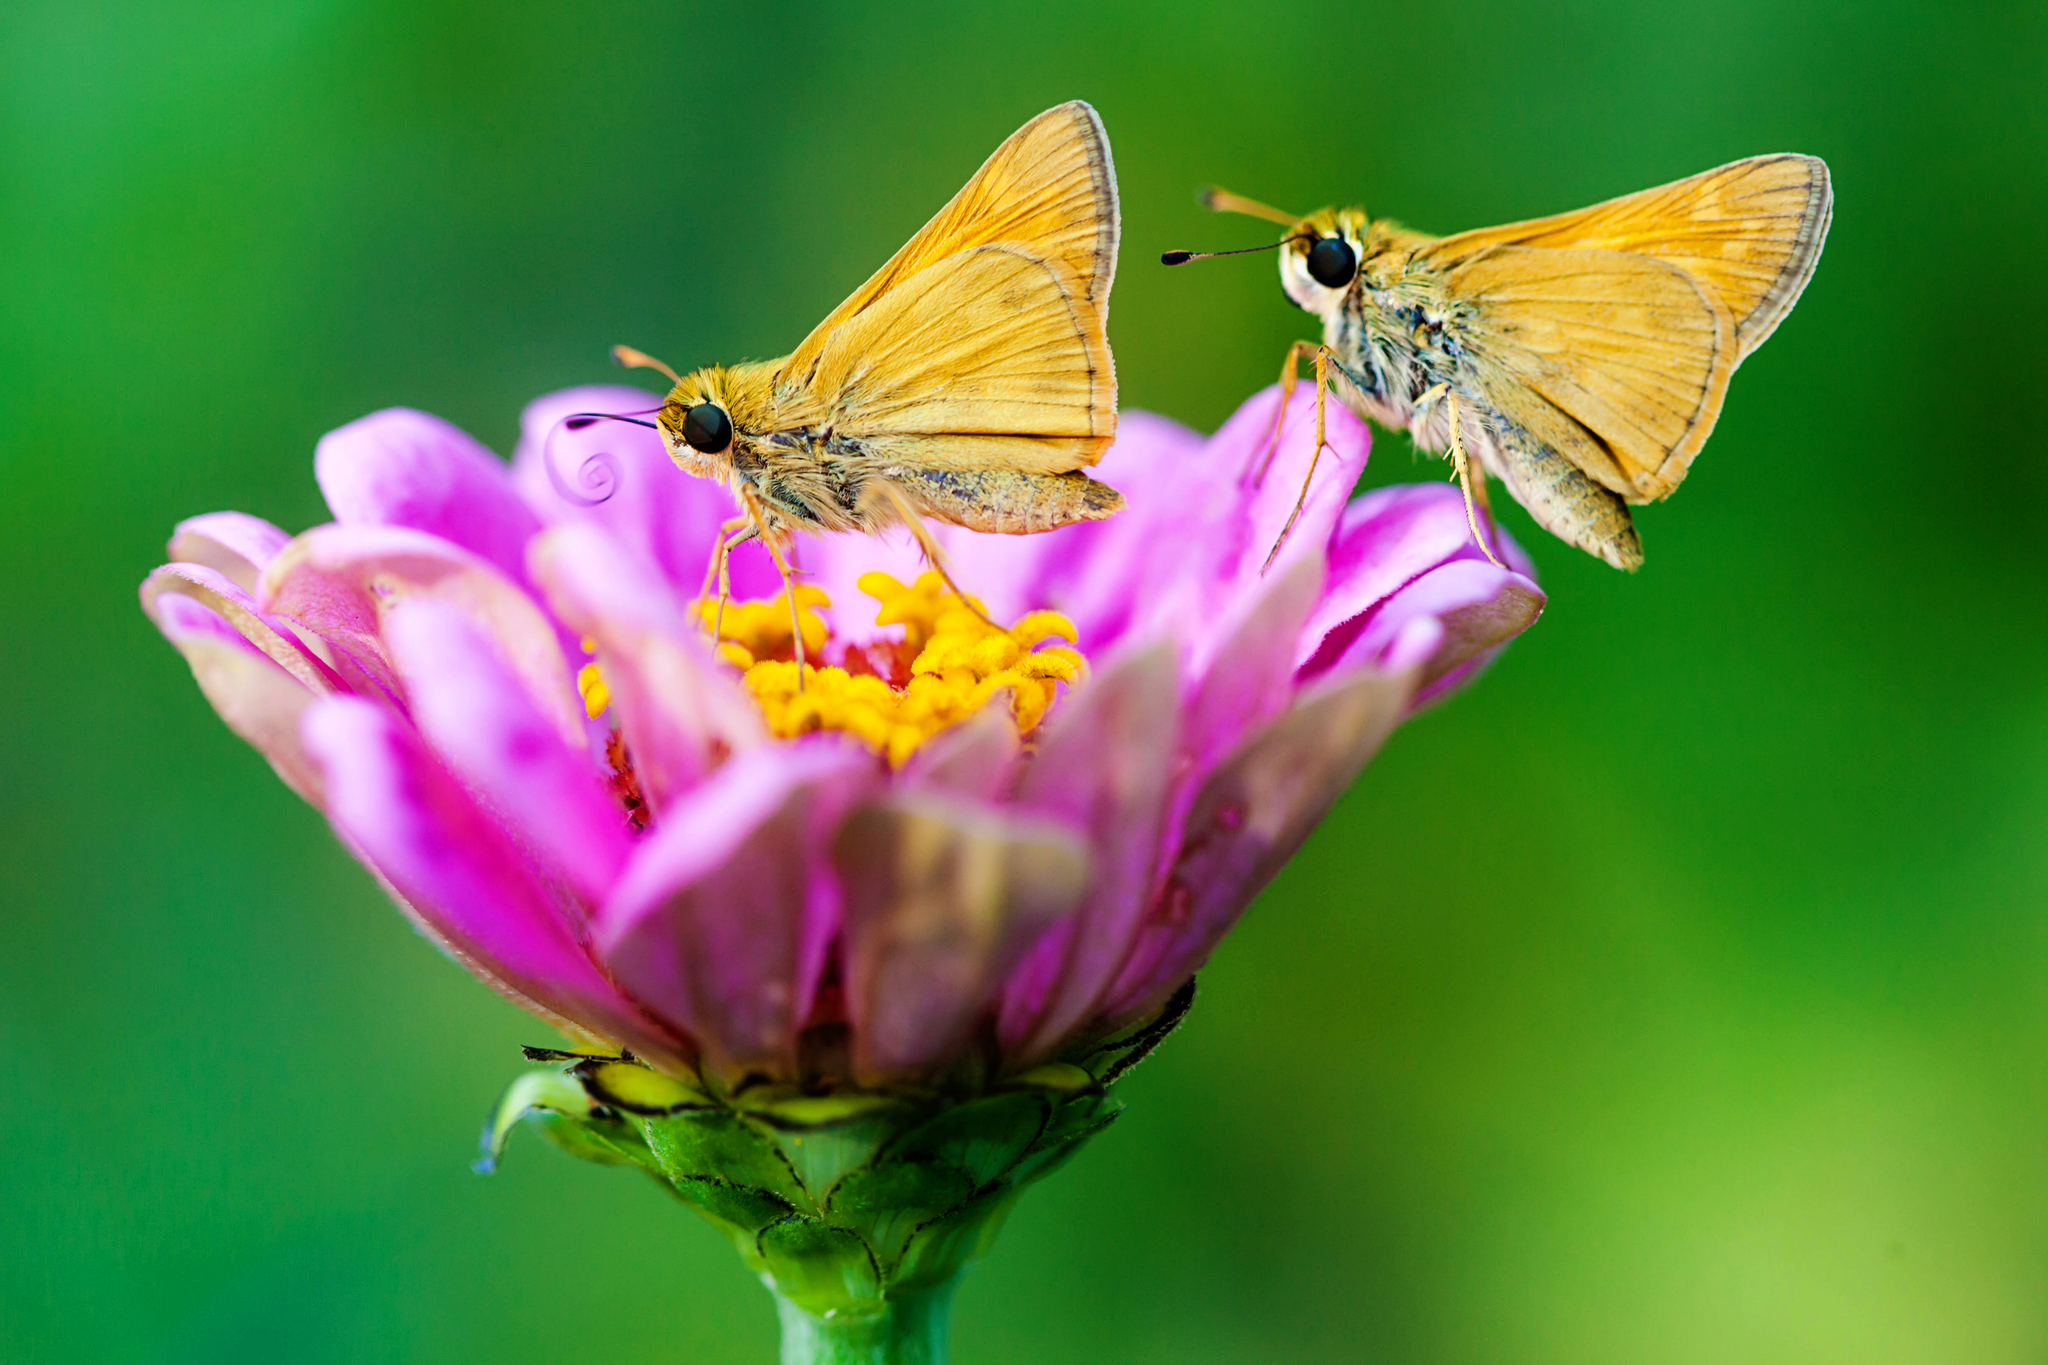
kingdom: Animalia
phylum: Arthropoda
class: Insecta
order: Lepidoptera
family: Hesperiidae
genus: Atalopedes
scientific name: Atalopedes
